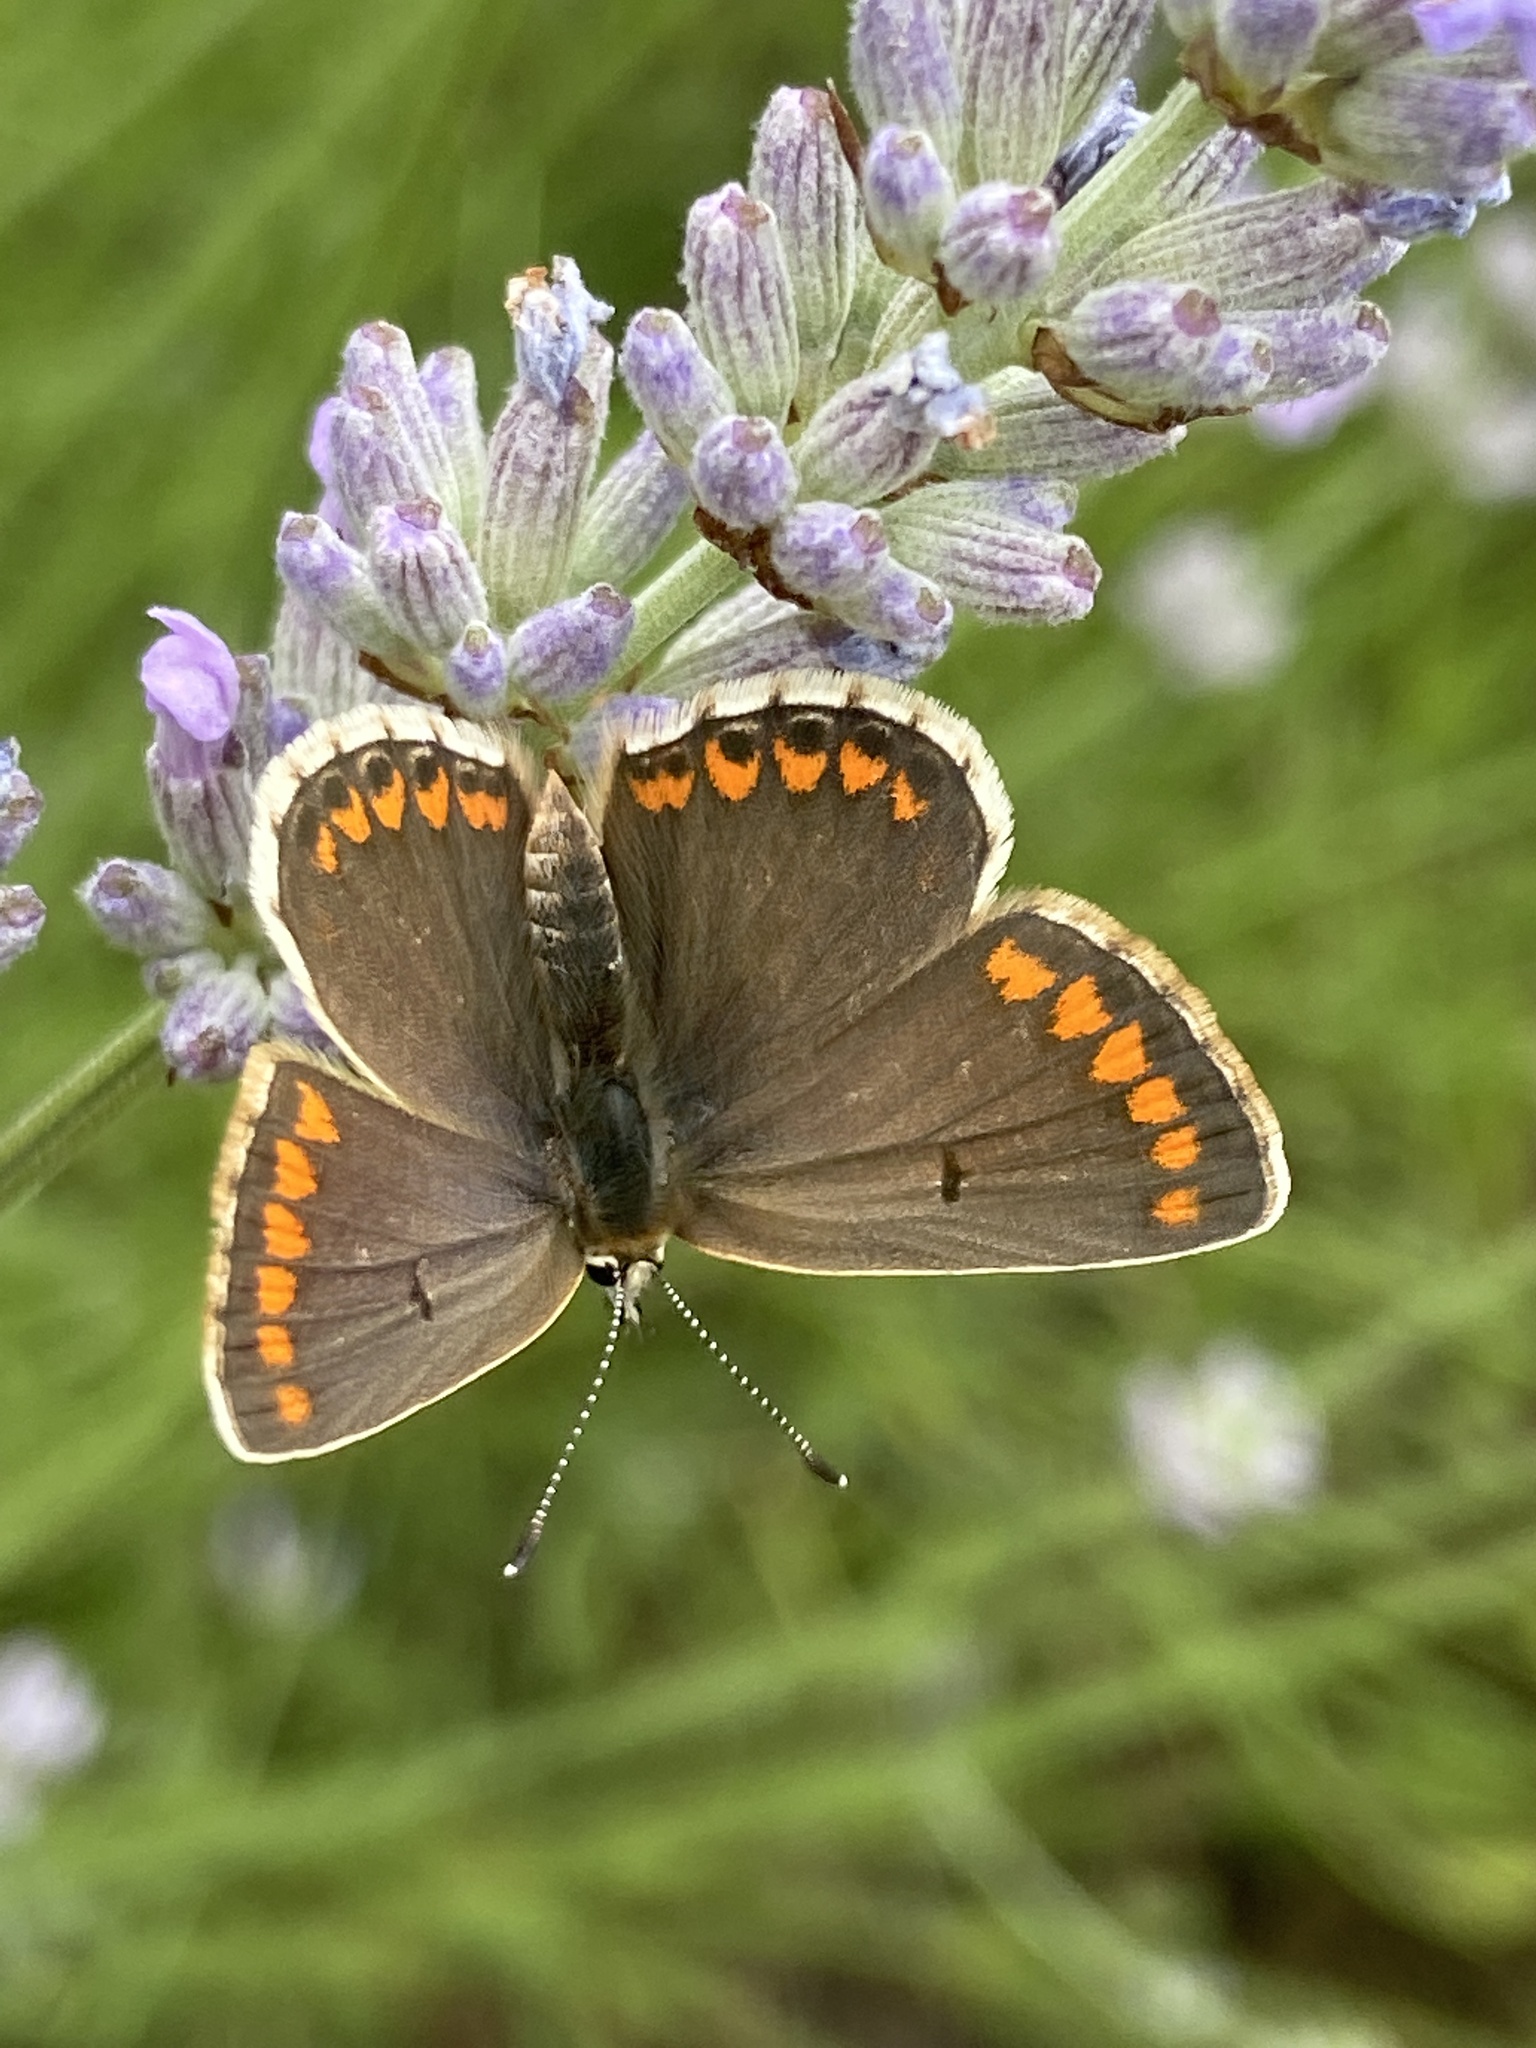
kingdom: Animalia
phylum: Arthropoda
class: Insecta
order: Lepidoptera
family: Lycaenidae
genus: Aricia
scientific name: Aricia agestis
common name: Brown argus
